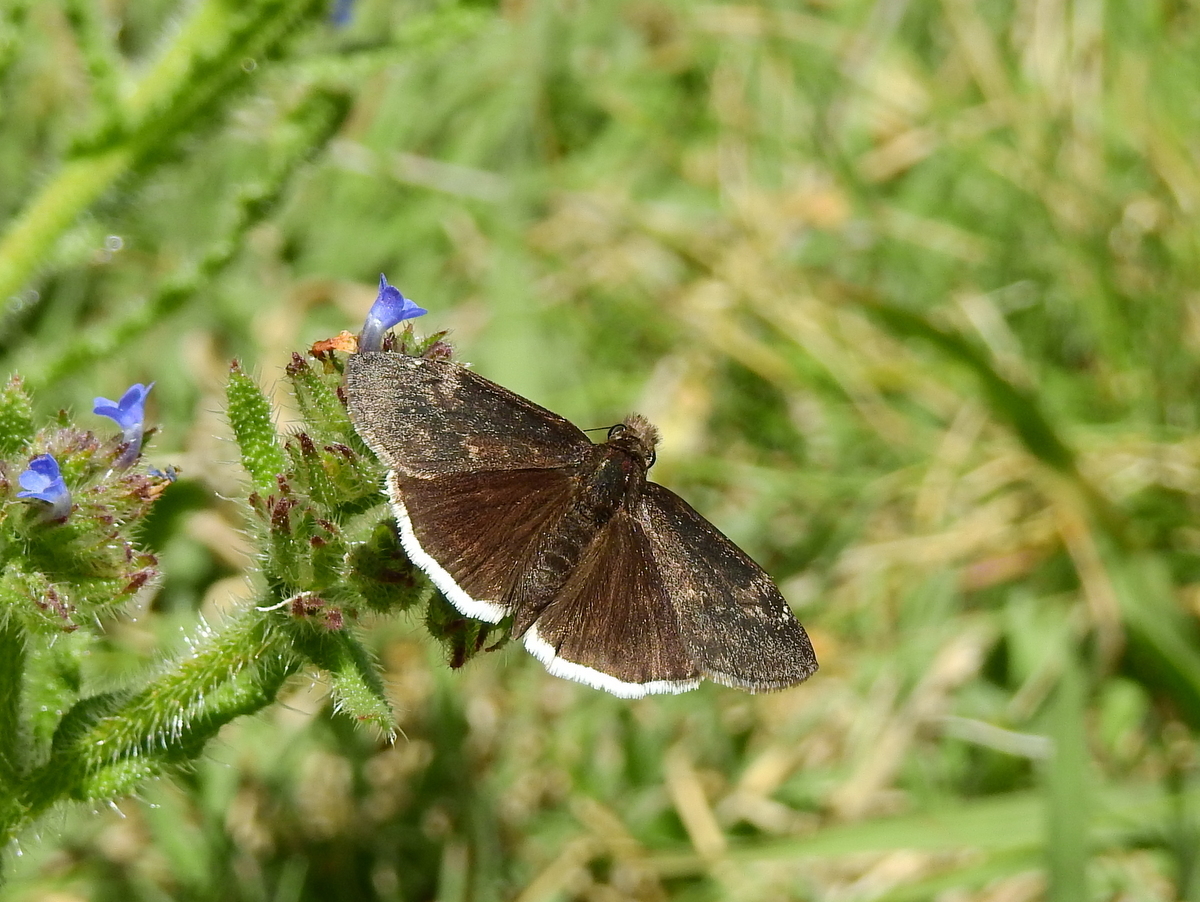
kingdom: Animalia
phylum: Arthropoda
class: Insecta
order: Lepidoptera
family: Hesperiidae
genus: Erynnis
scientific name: Erynnis funeralis
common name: Funereal duskywing
